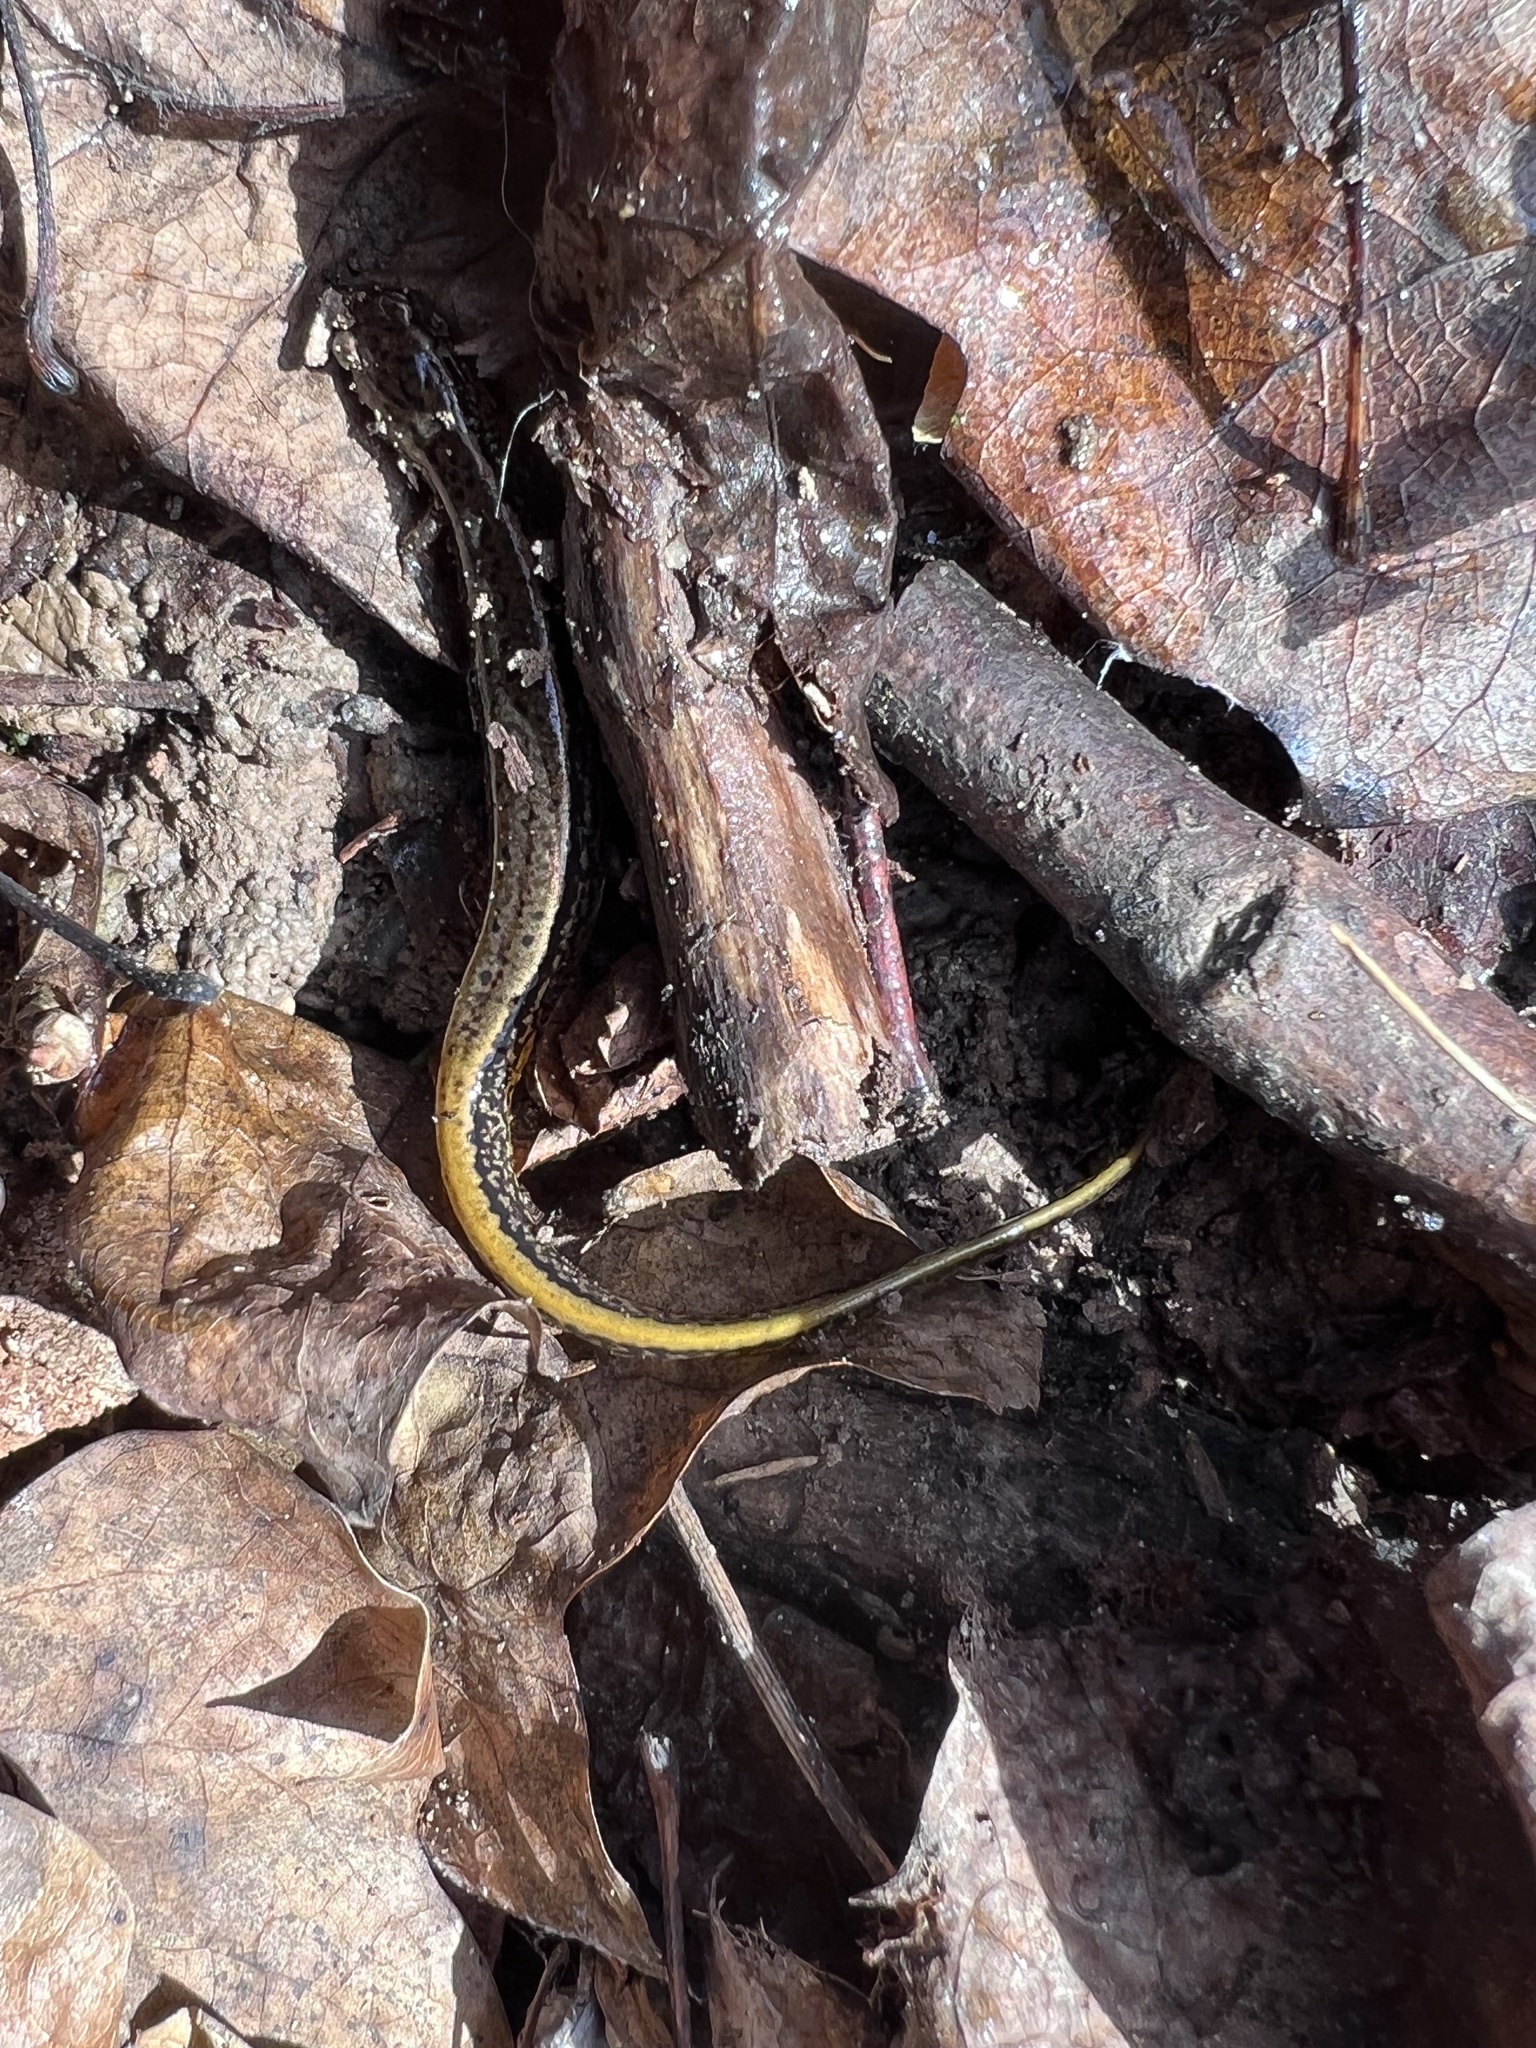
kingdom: Animalia
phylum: Chordata
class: Amphibia
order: Caudata
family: Plethodontidae
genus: Eurycea
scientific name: Eurycea bislineata
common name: Northern two-lined salamander
